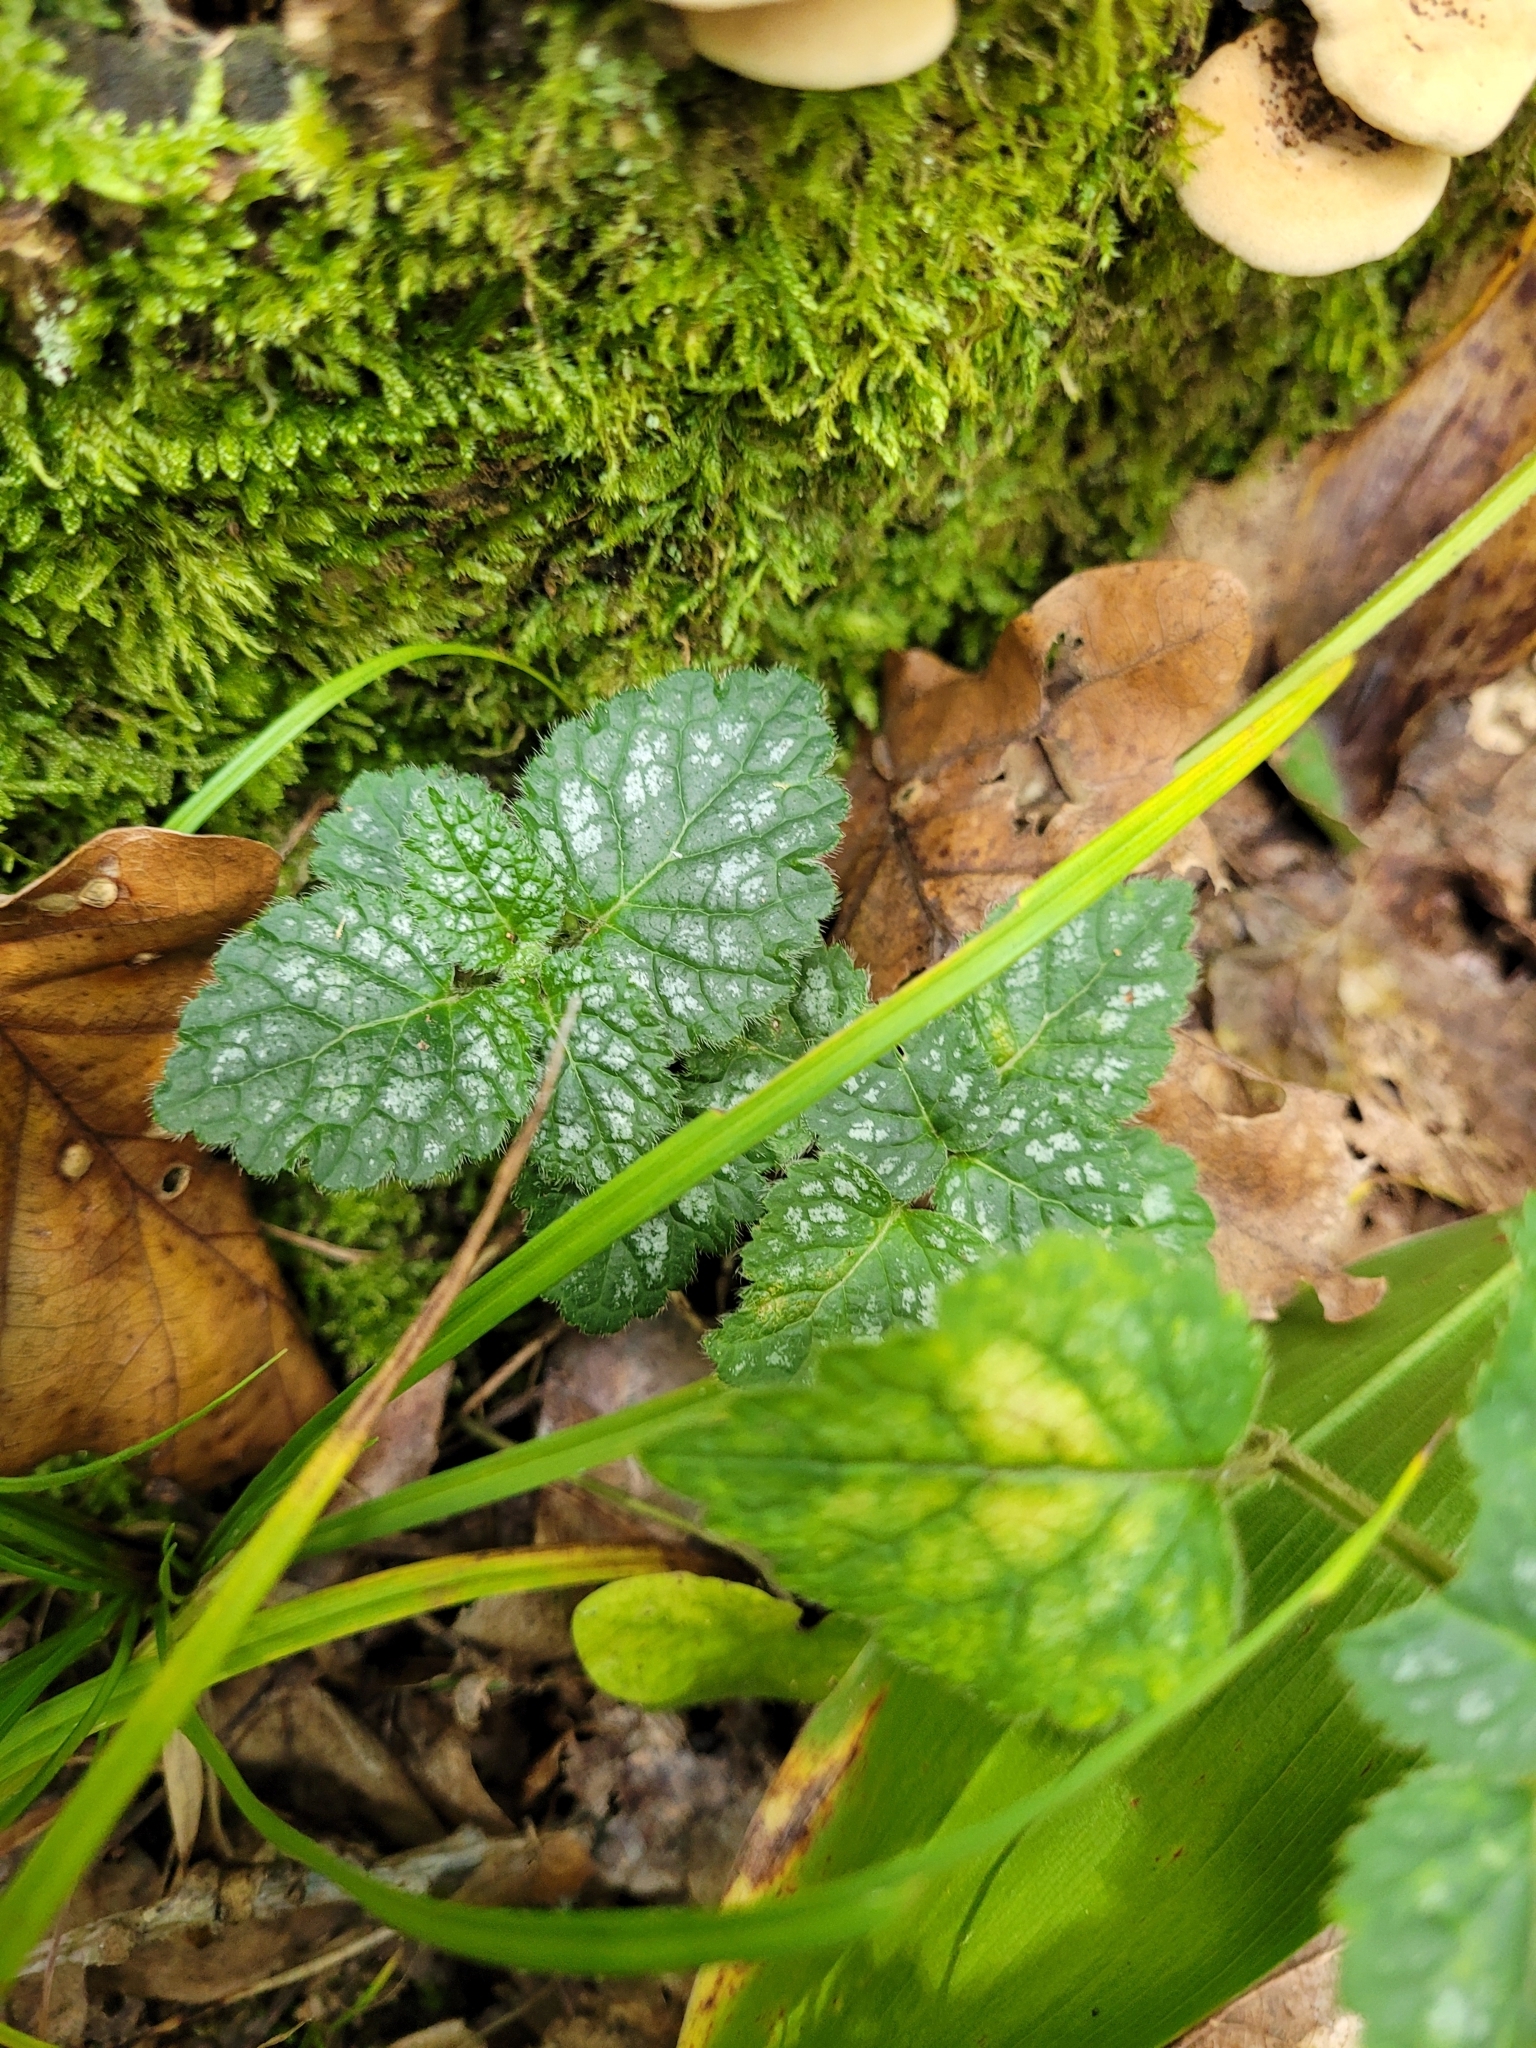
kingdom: Plantae
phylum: Tracheophyta
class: Magnoliopsida
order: Lamiales
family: Lamiaceae
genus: Lamium
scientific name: Lamium galeobdolon
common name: Yellow archangel
